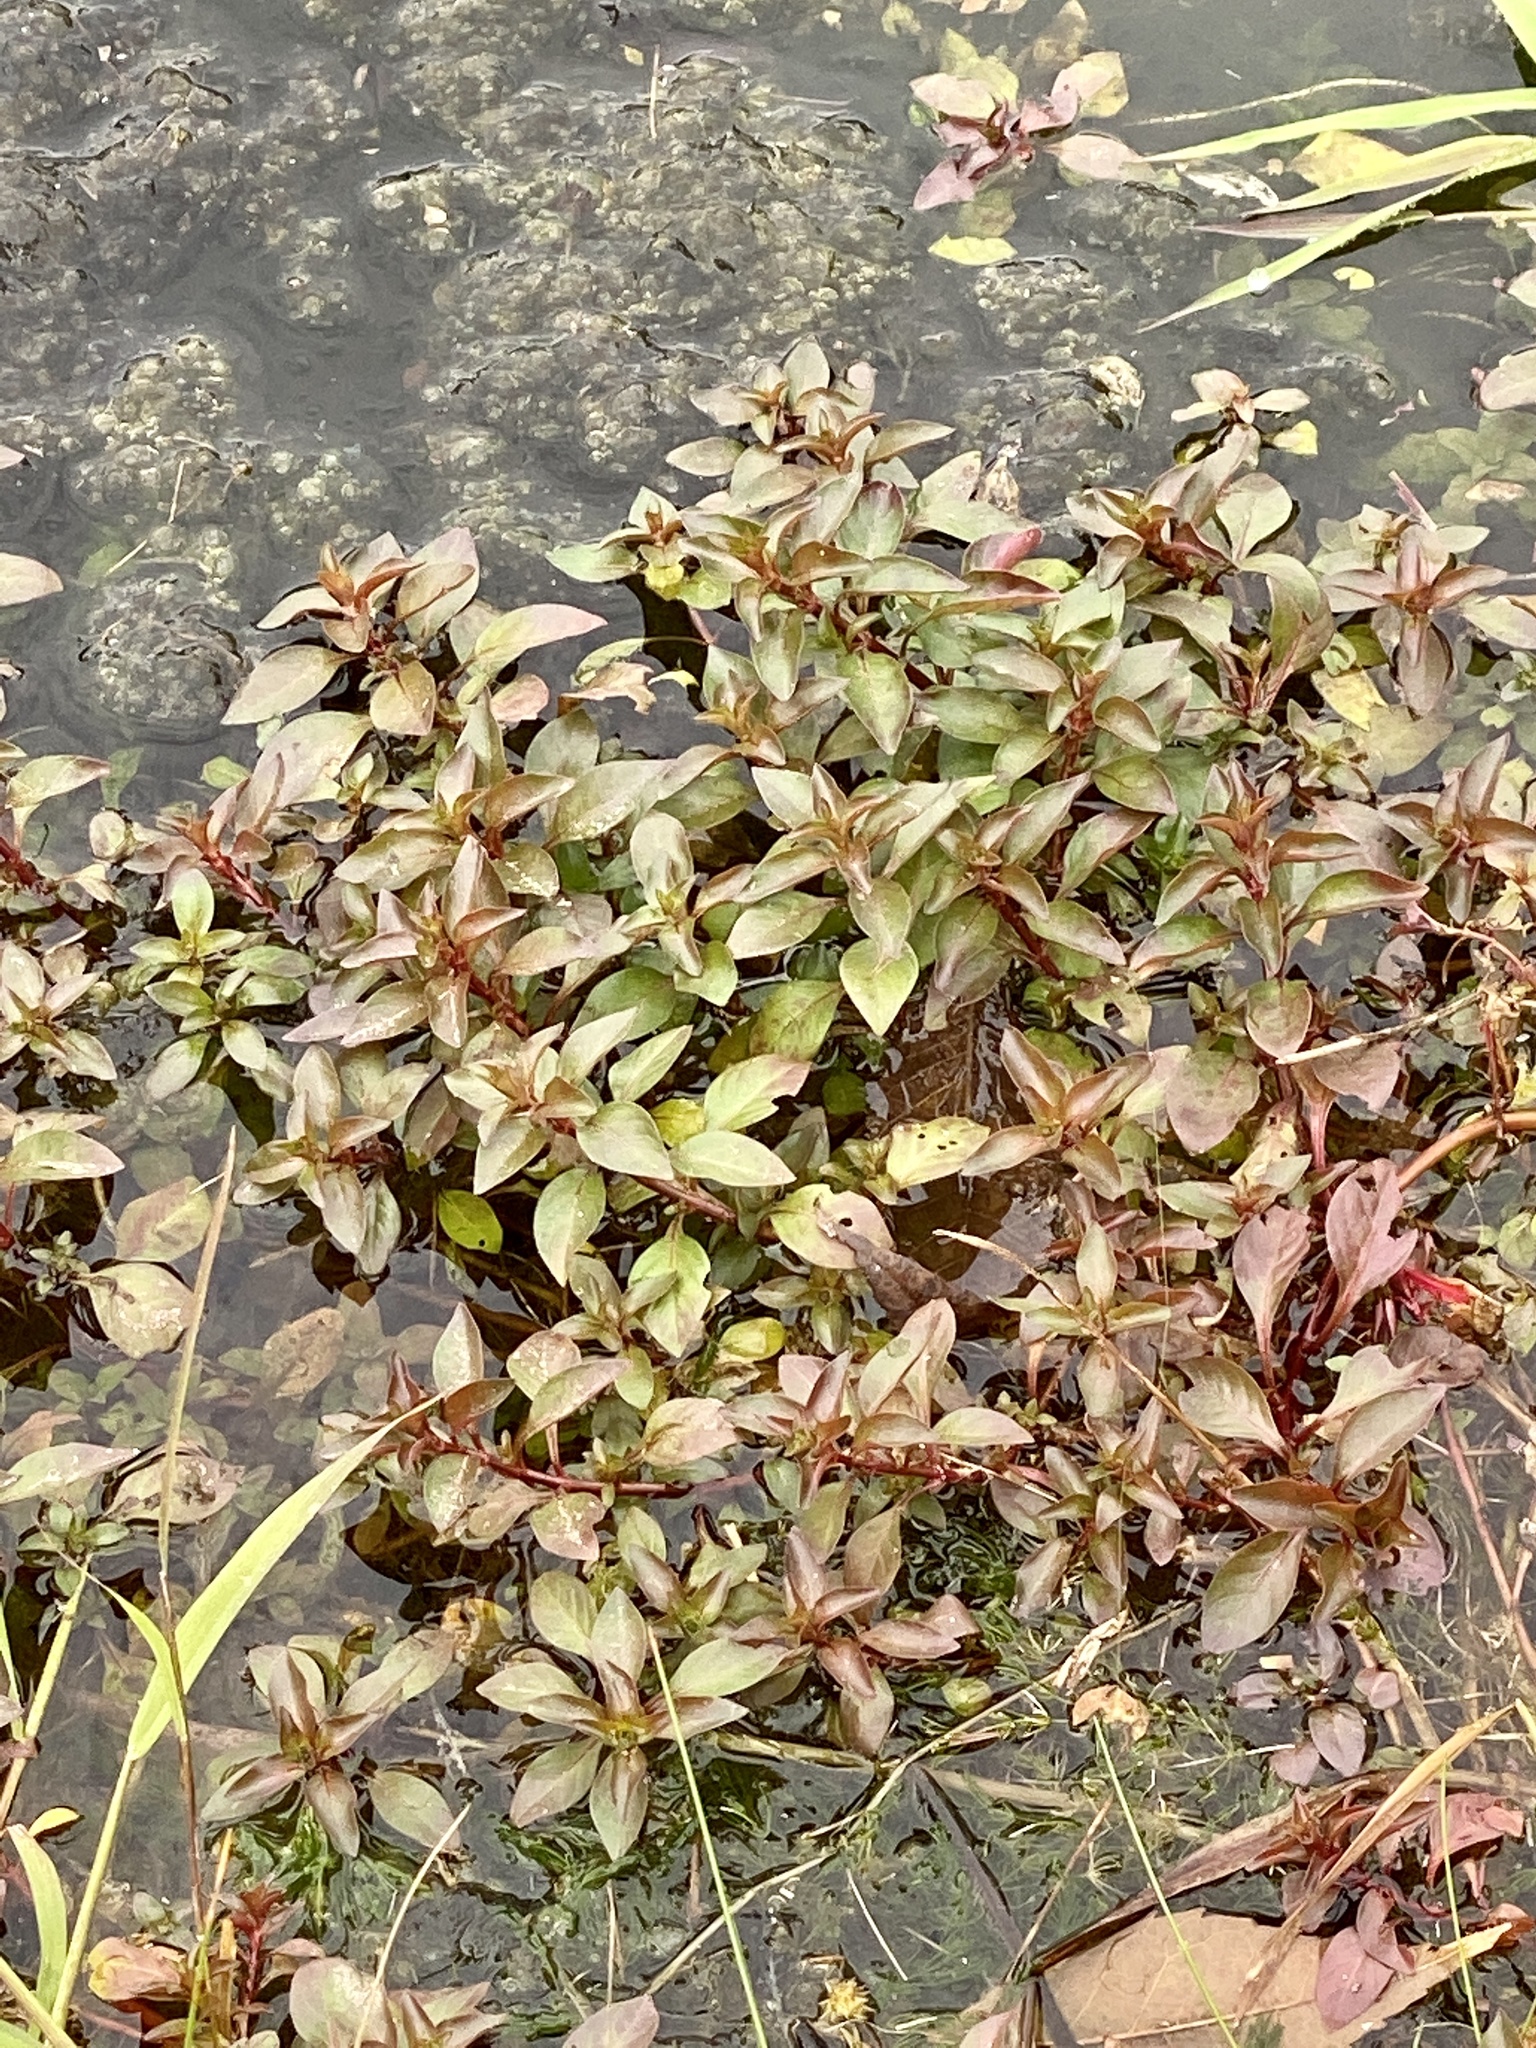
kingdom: Plantae
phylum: Tracheophyta
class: Magnoliopsida
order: Myrtales
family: Onagraceae
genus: Ludwigia
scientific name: Ludwigia palustris
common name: Hampshire-purslane
